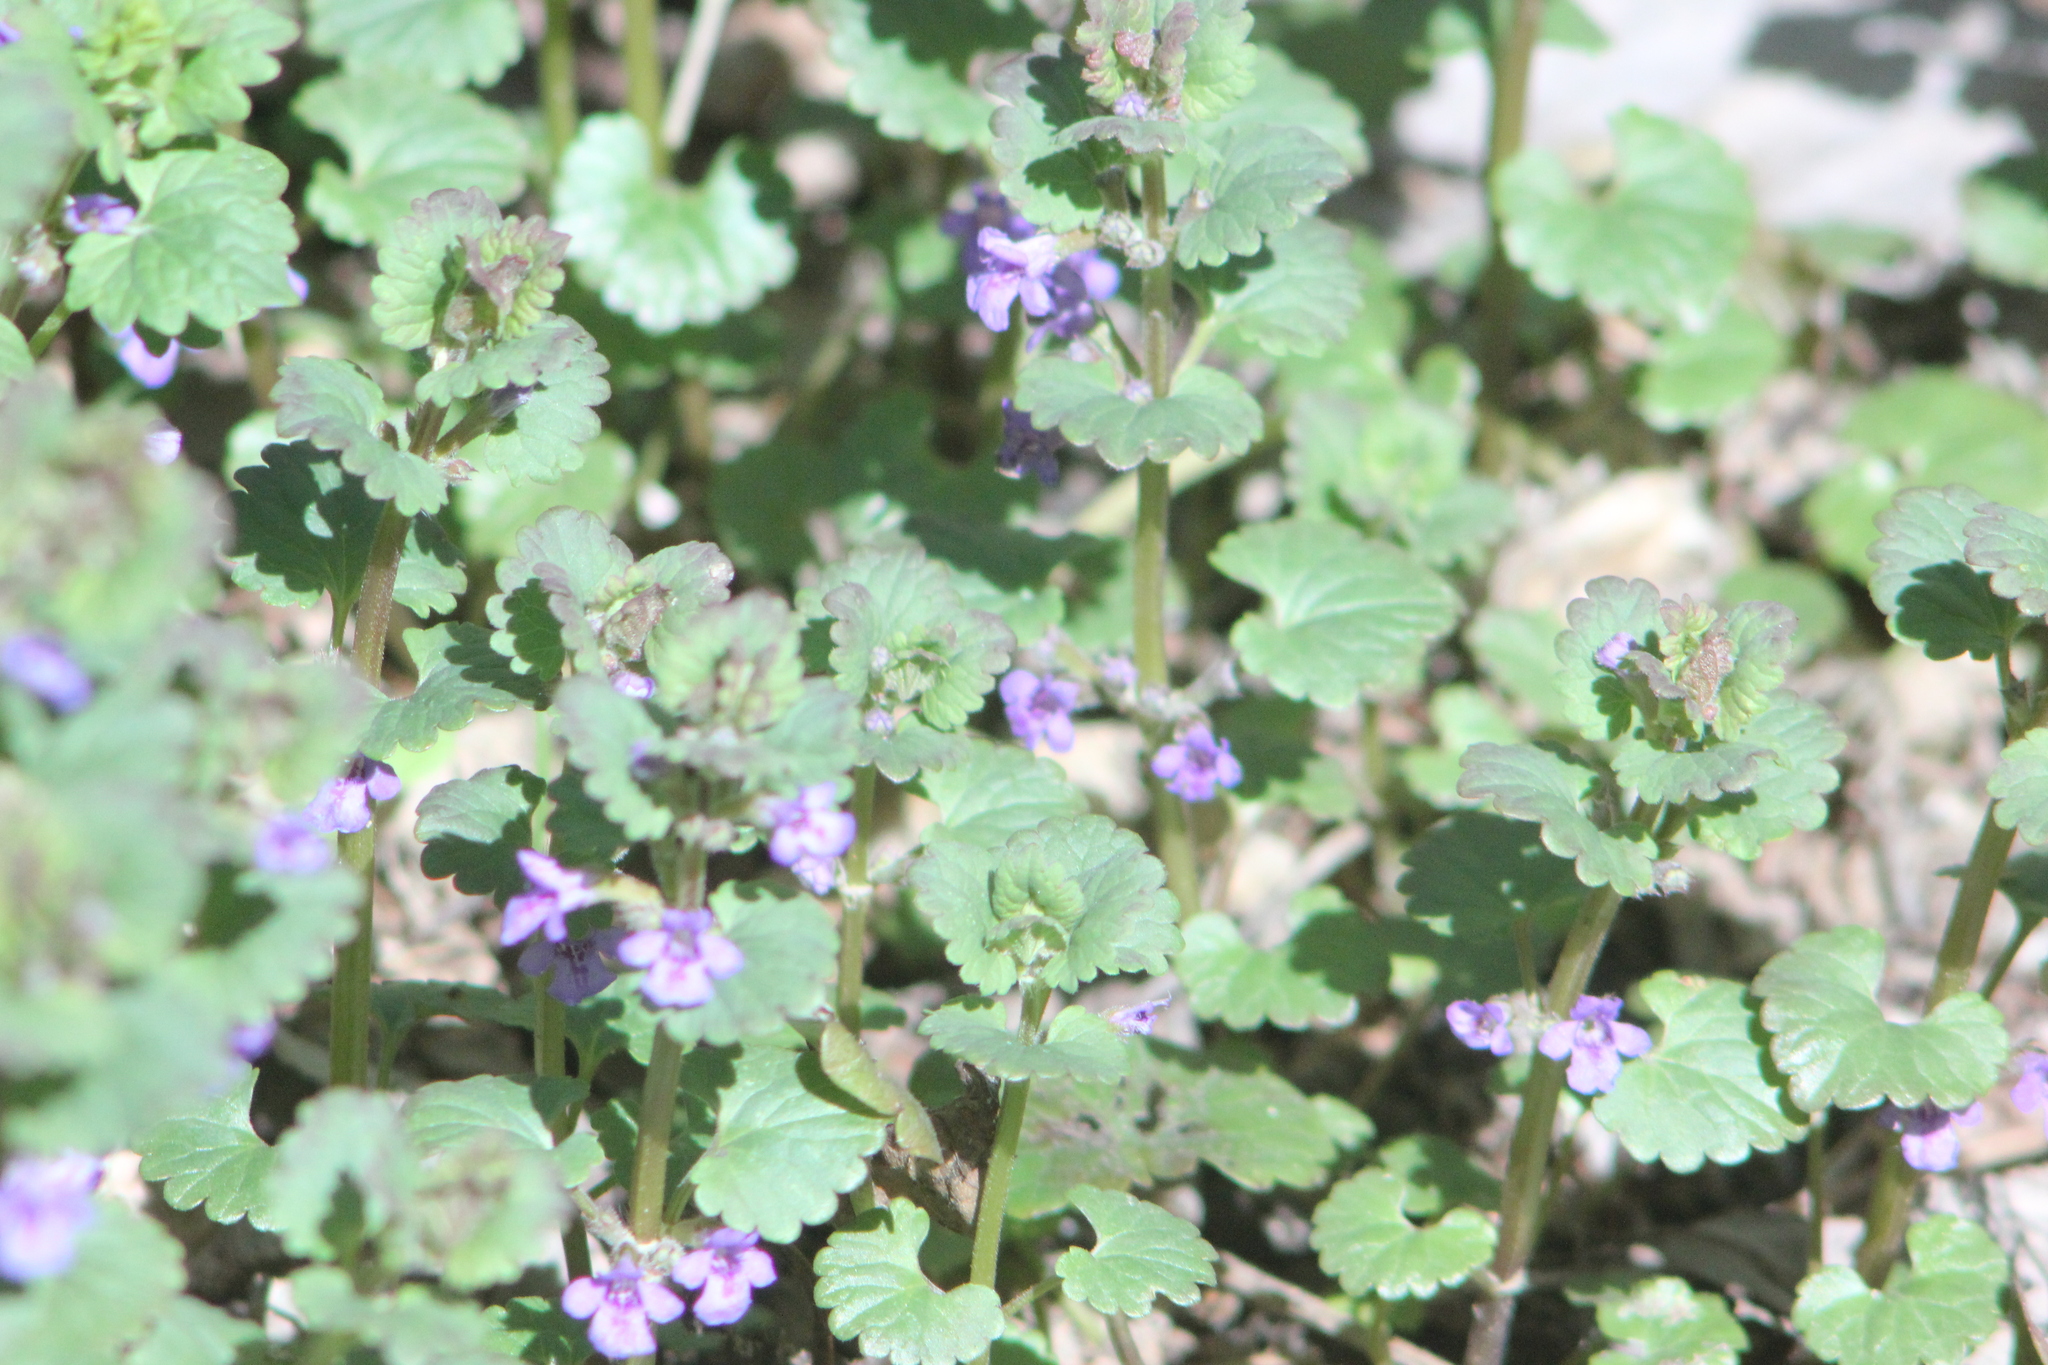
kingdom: Plantae
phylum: Tracheophyta
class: Magnoliopsida
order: Lamiales
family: Lamiaceae
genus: Glechoma
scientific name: Glechoma hederacea
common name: Ground ivy
